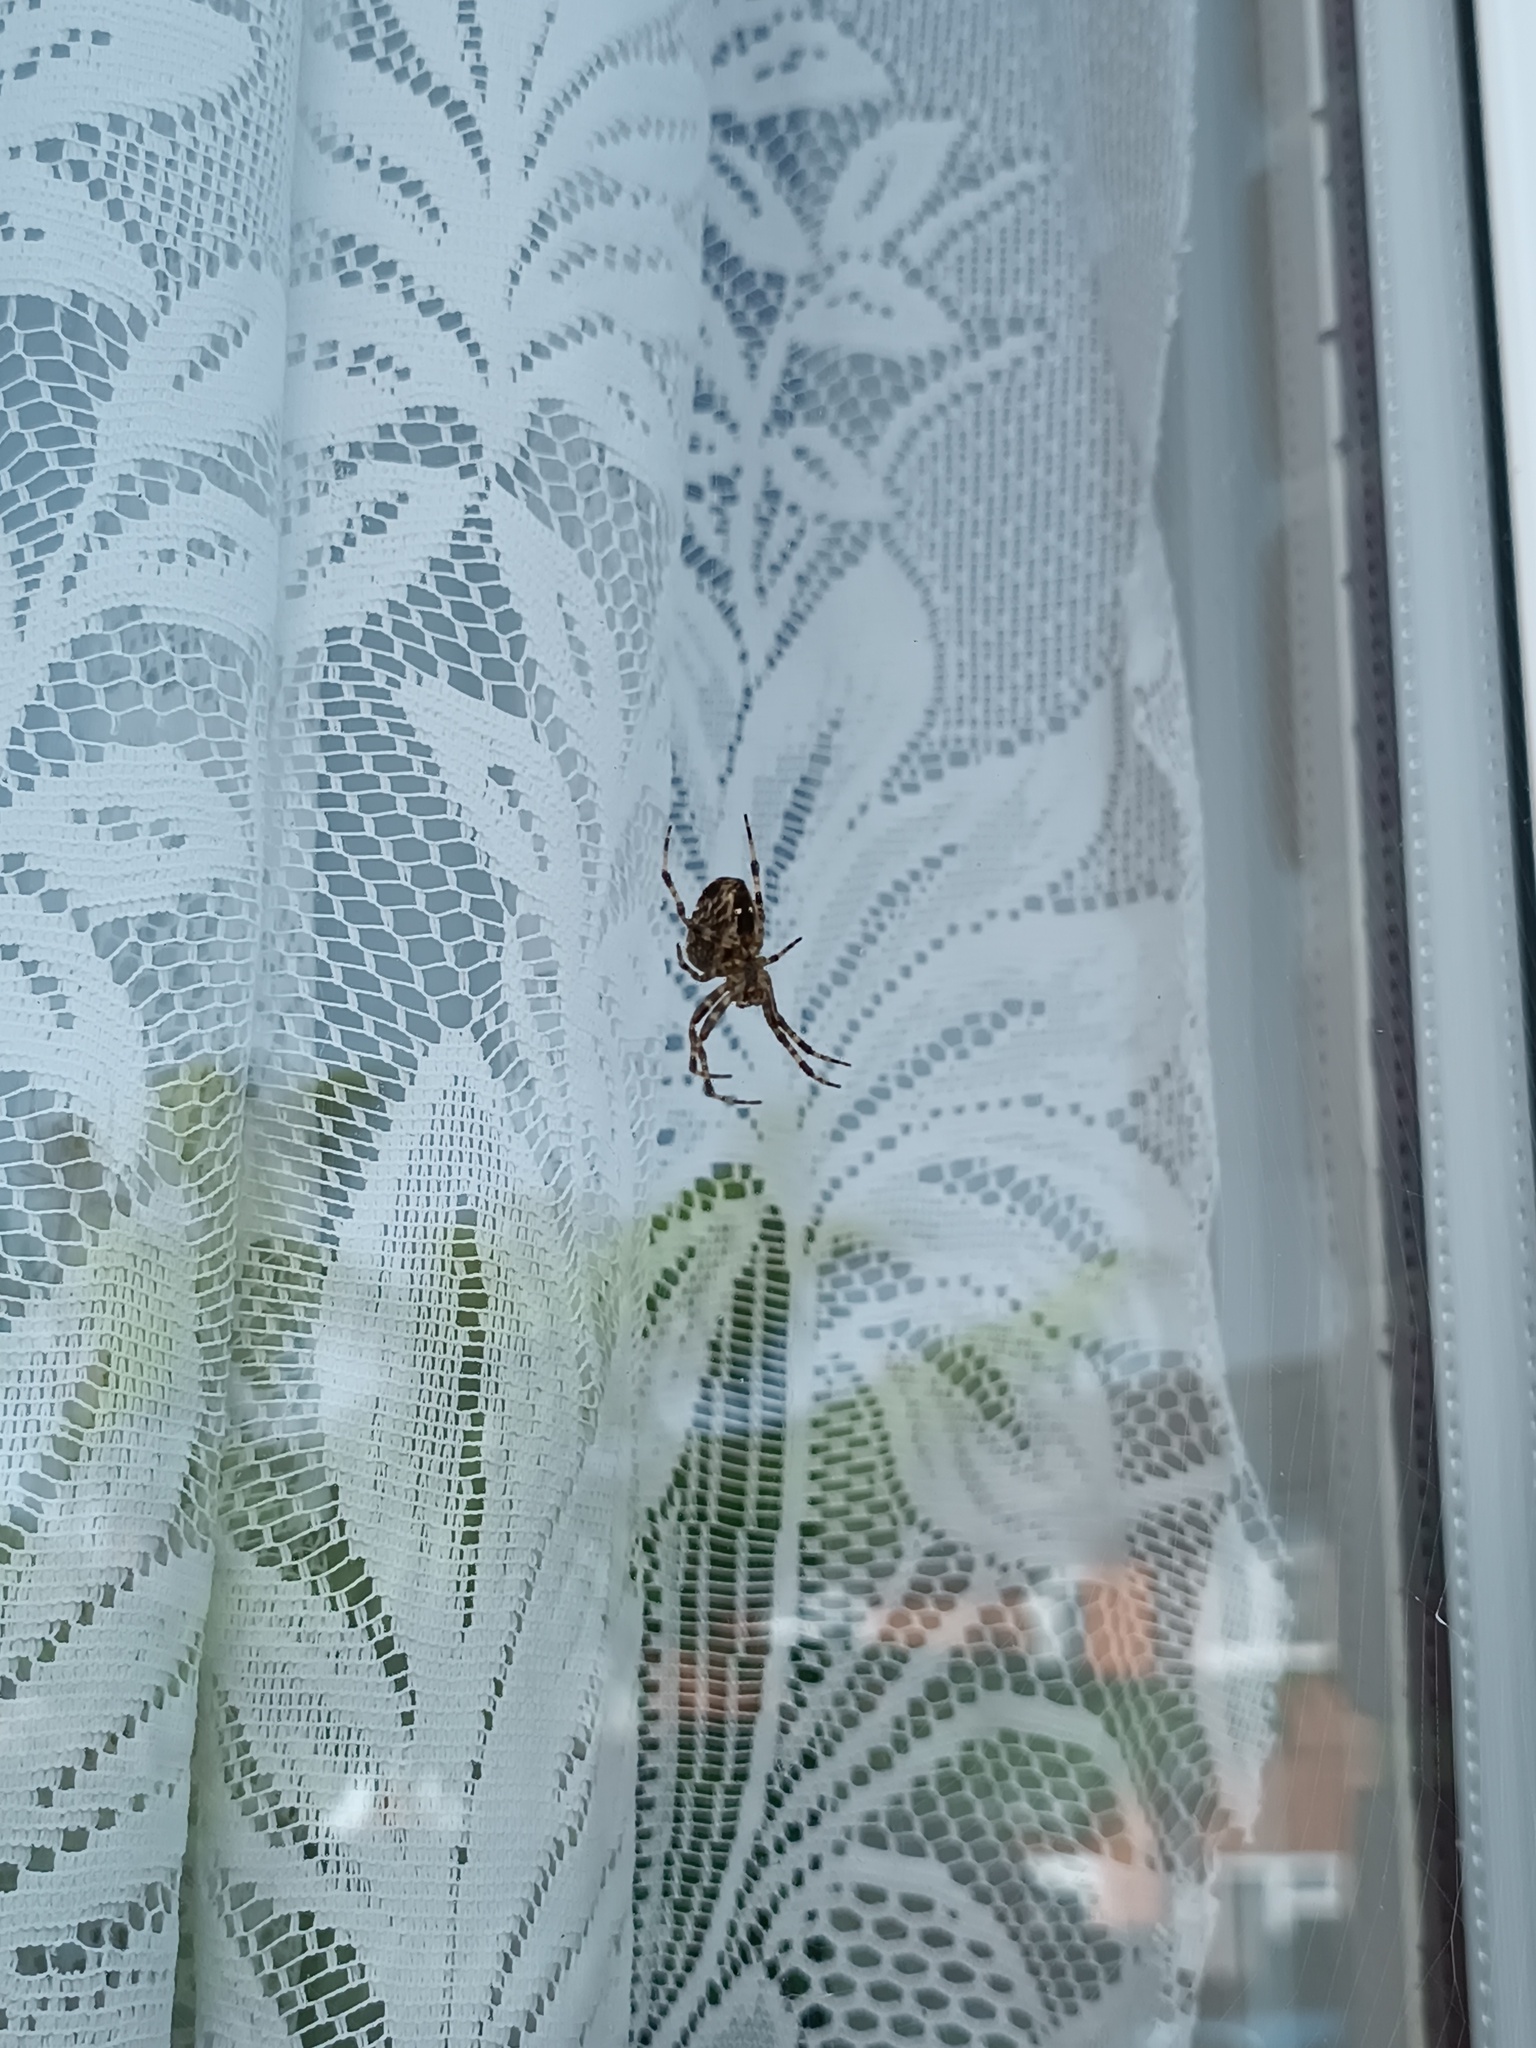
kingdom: Animalia
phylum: Arthropoda
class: Arachnida
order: Araneae
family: Araneidae
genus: Araneus
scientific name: Araneus diadematus
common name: Cross orbweaver
